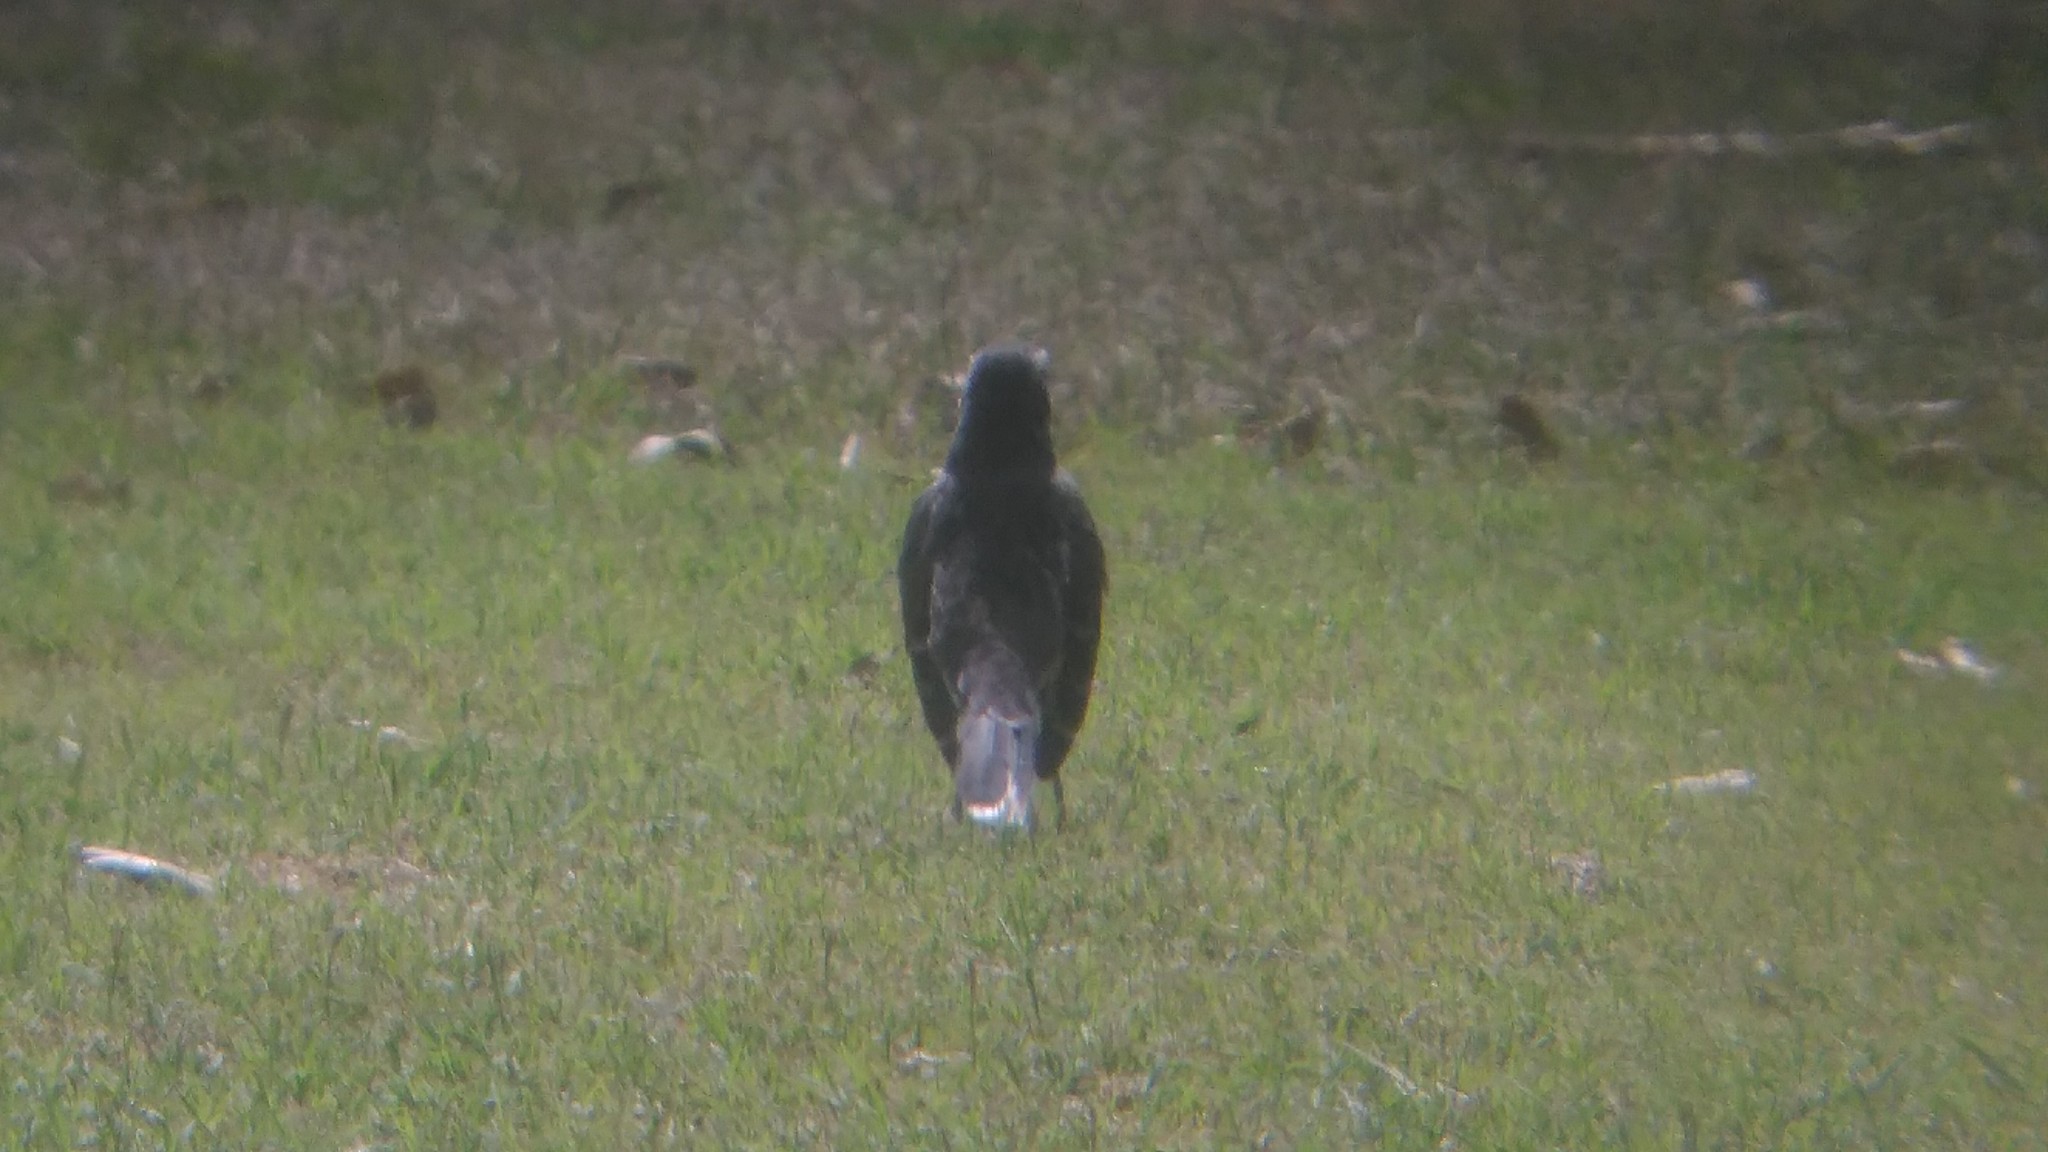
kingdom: Animalia
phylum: Chordata
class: Aves
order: Passeriformes
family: Mimidae
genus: Mimus
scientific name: Mimus saturninus
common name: Chalk-browed mockingbird
